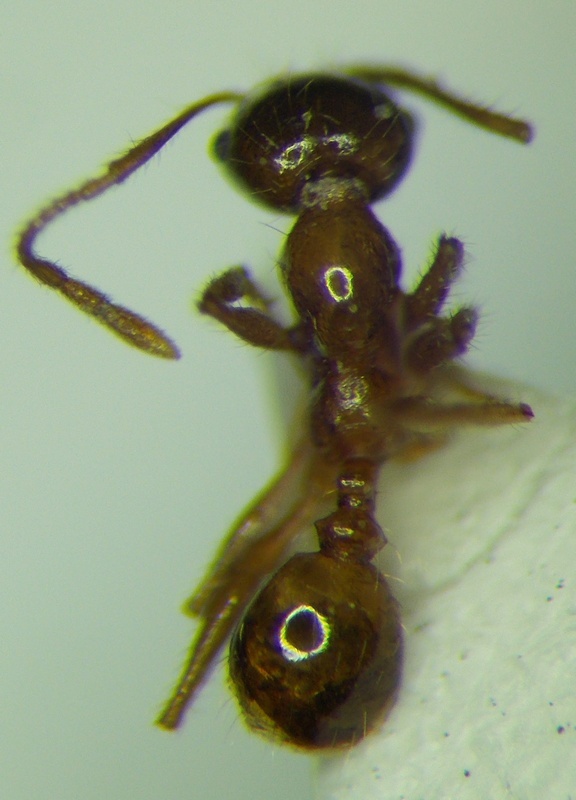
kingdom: Animalia
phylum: Arthropoda
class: Insecta
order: Hymenoptera
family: Formicidae
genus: Pheidole
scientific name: Pheidole pallidula
